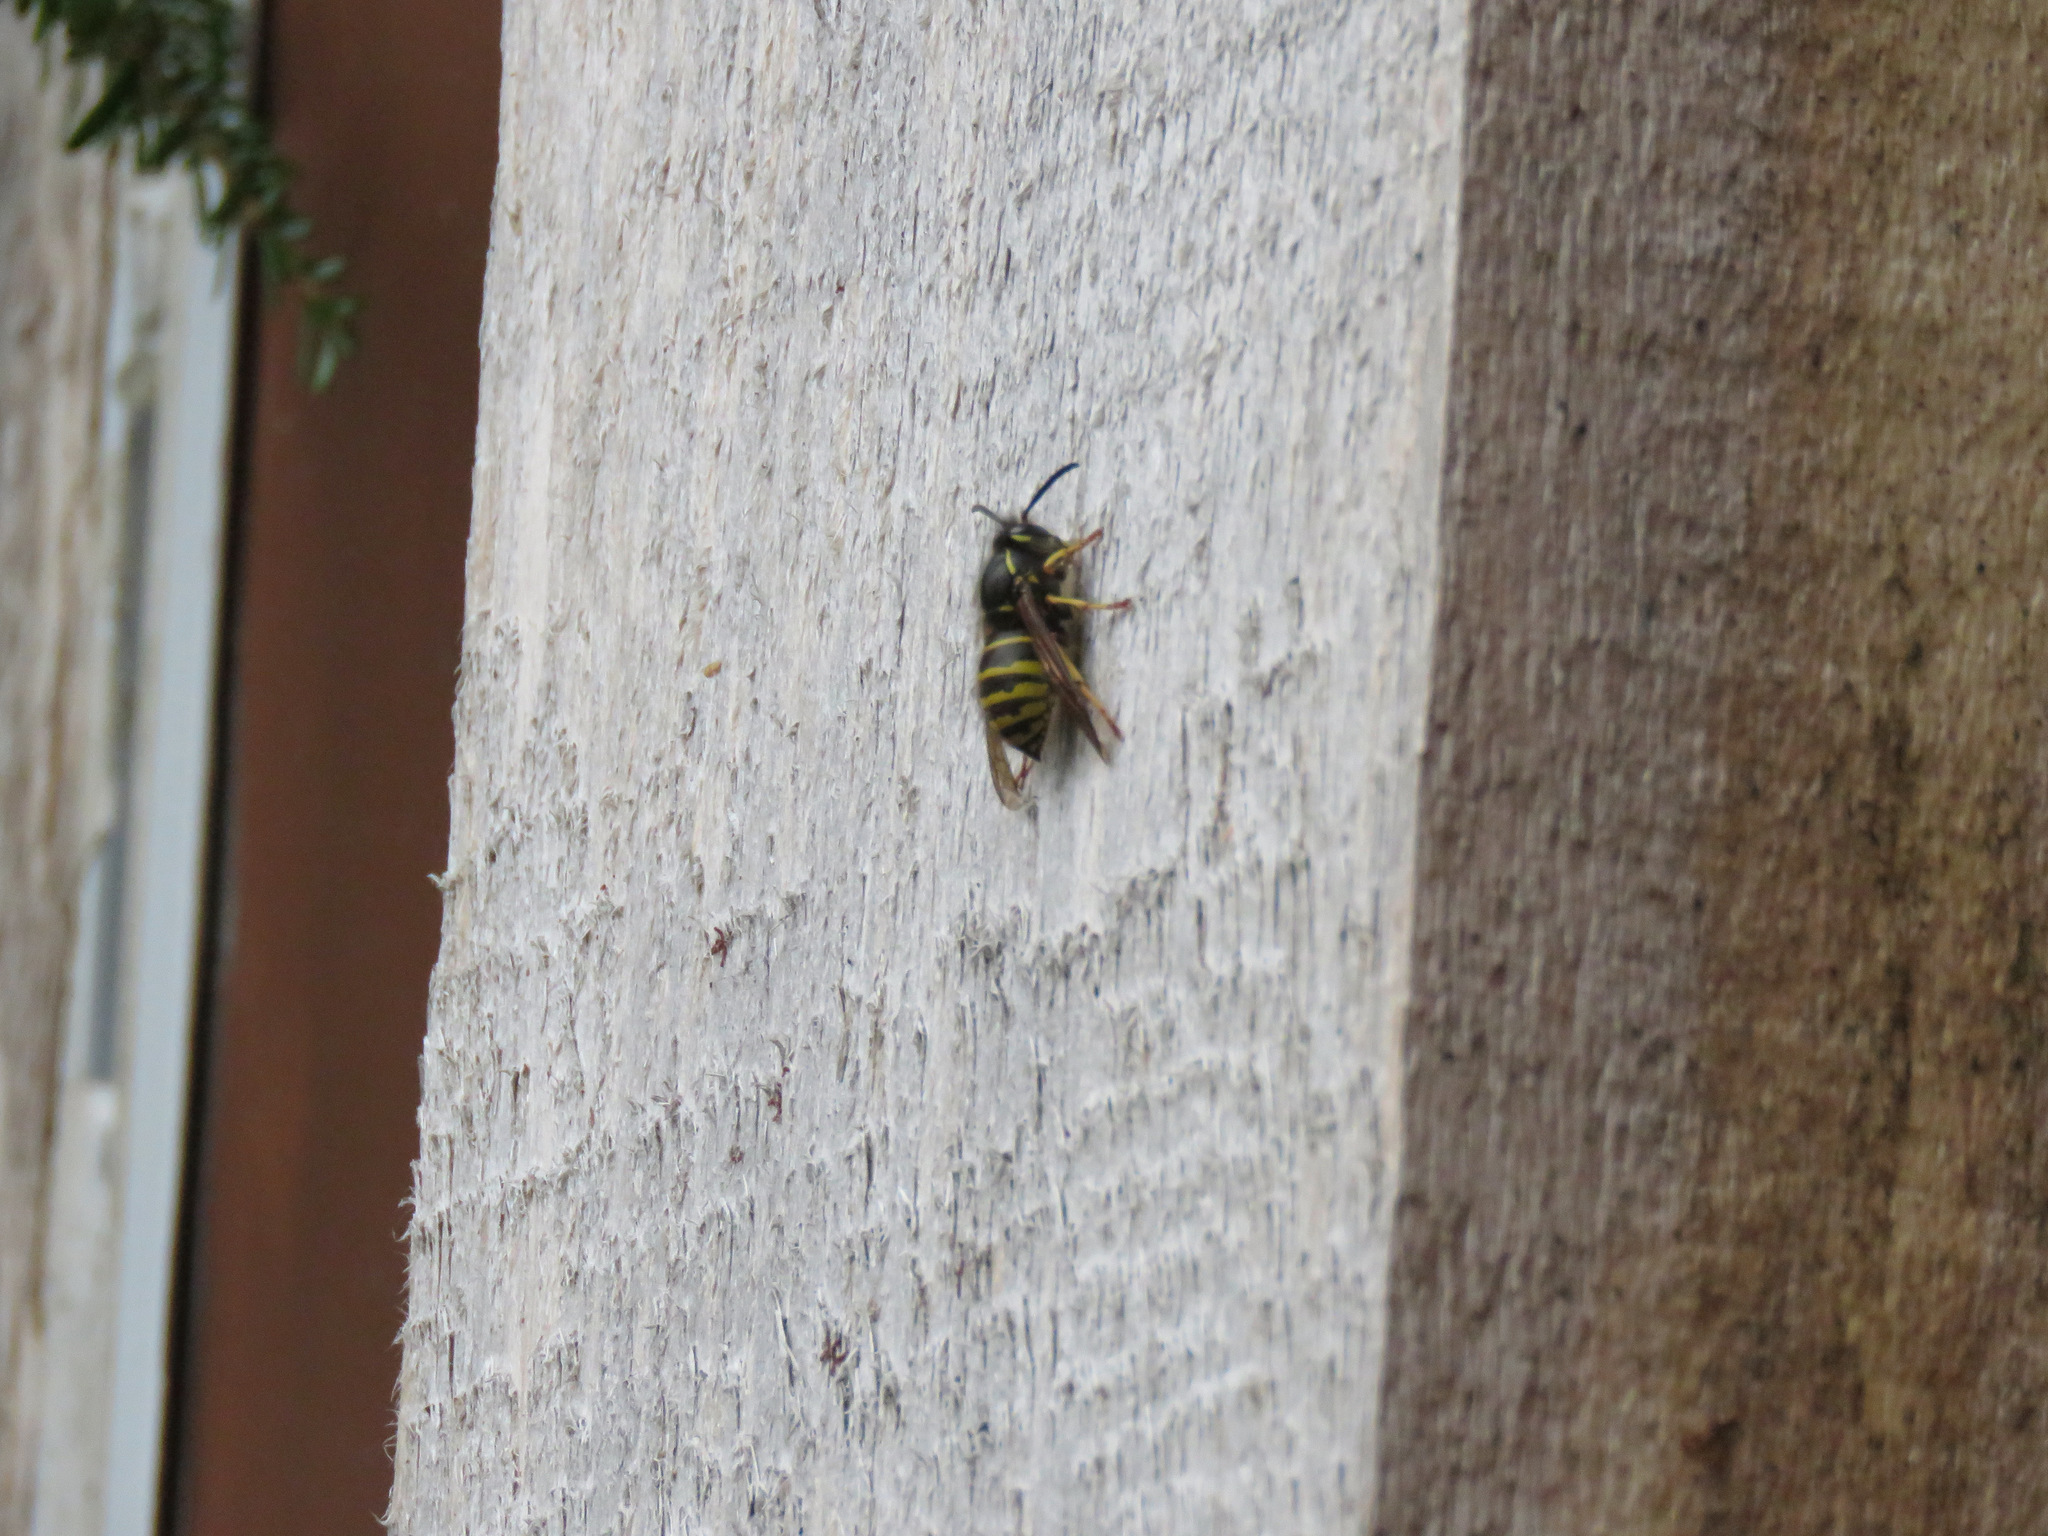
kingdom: Animalia
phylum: Arthropoda
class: Insecta
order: Hymenoptera
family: Vespidae
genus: Dolichovespula
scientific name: Dolichovespula
